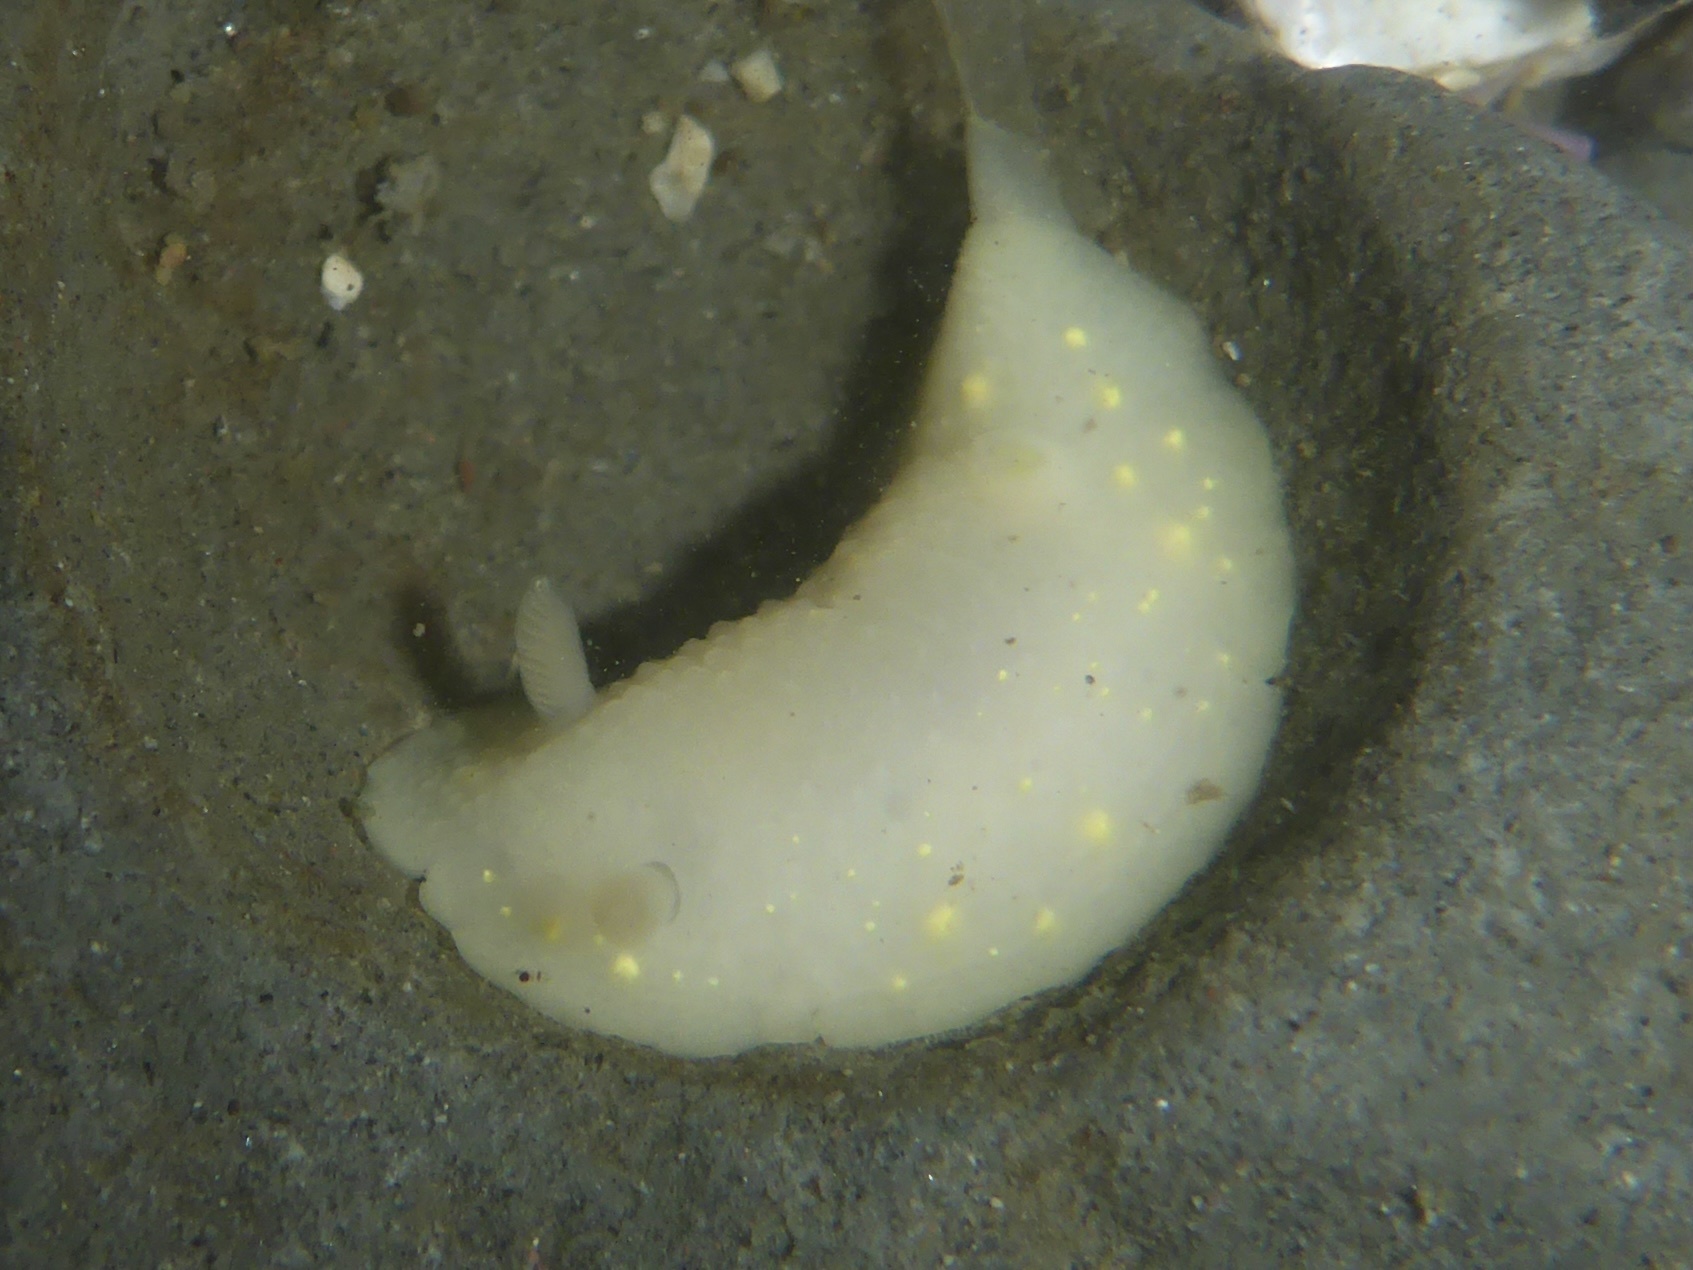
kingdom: Animalia
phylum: Mollusca
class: Gastropoda
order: Nudibranchia
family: Cadlinidae
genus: Cadlina
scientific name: Cadlina modesta
